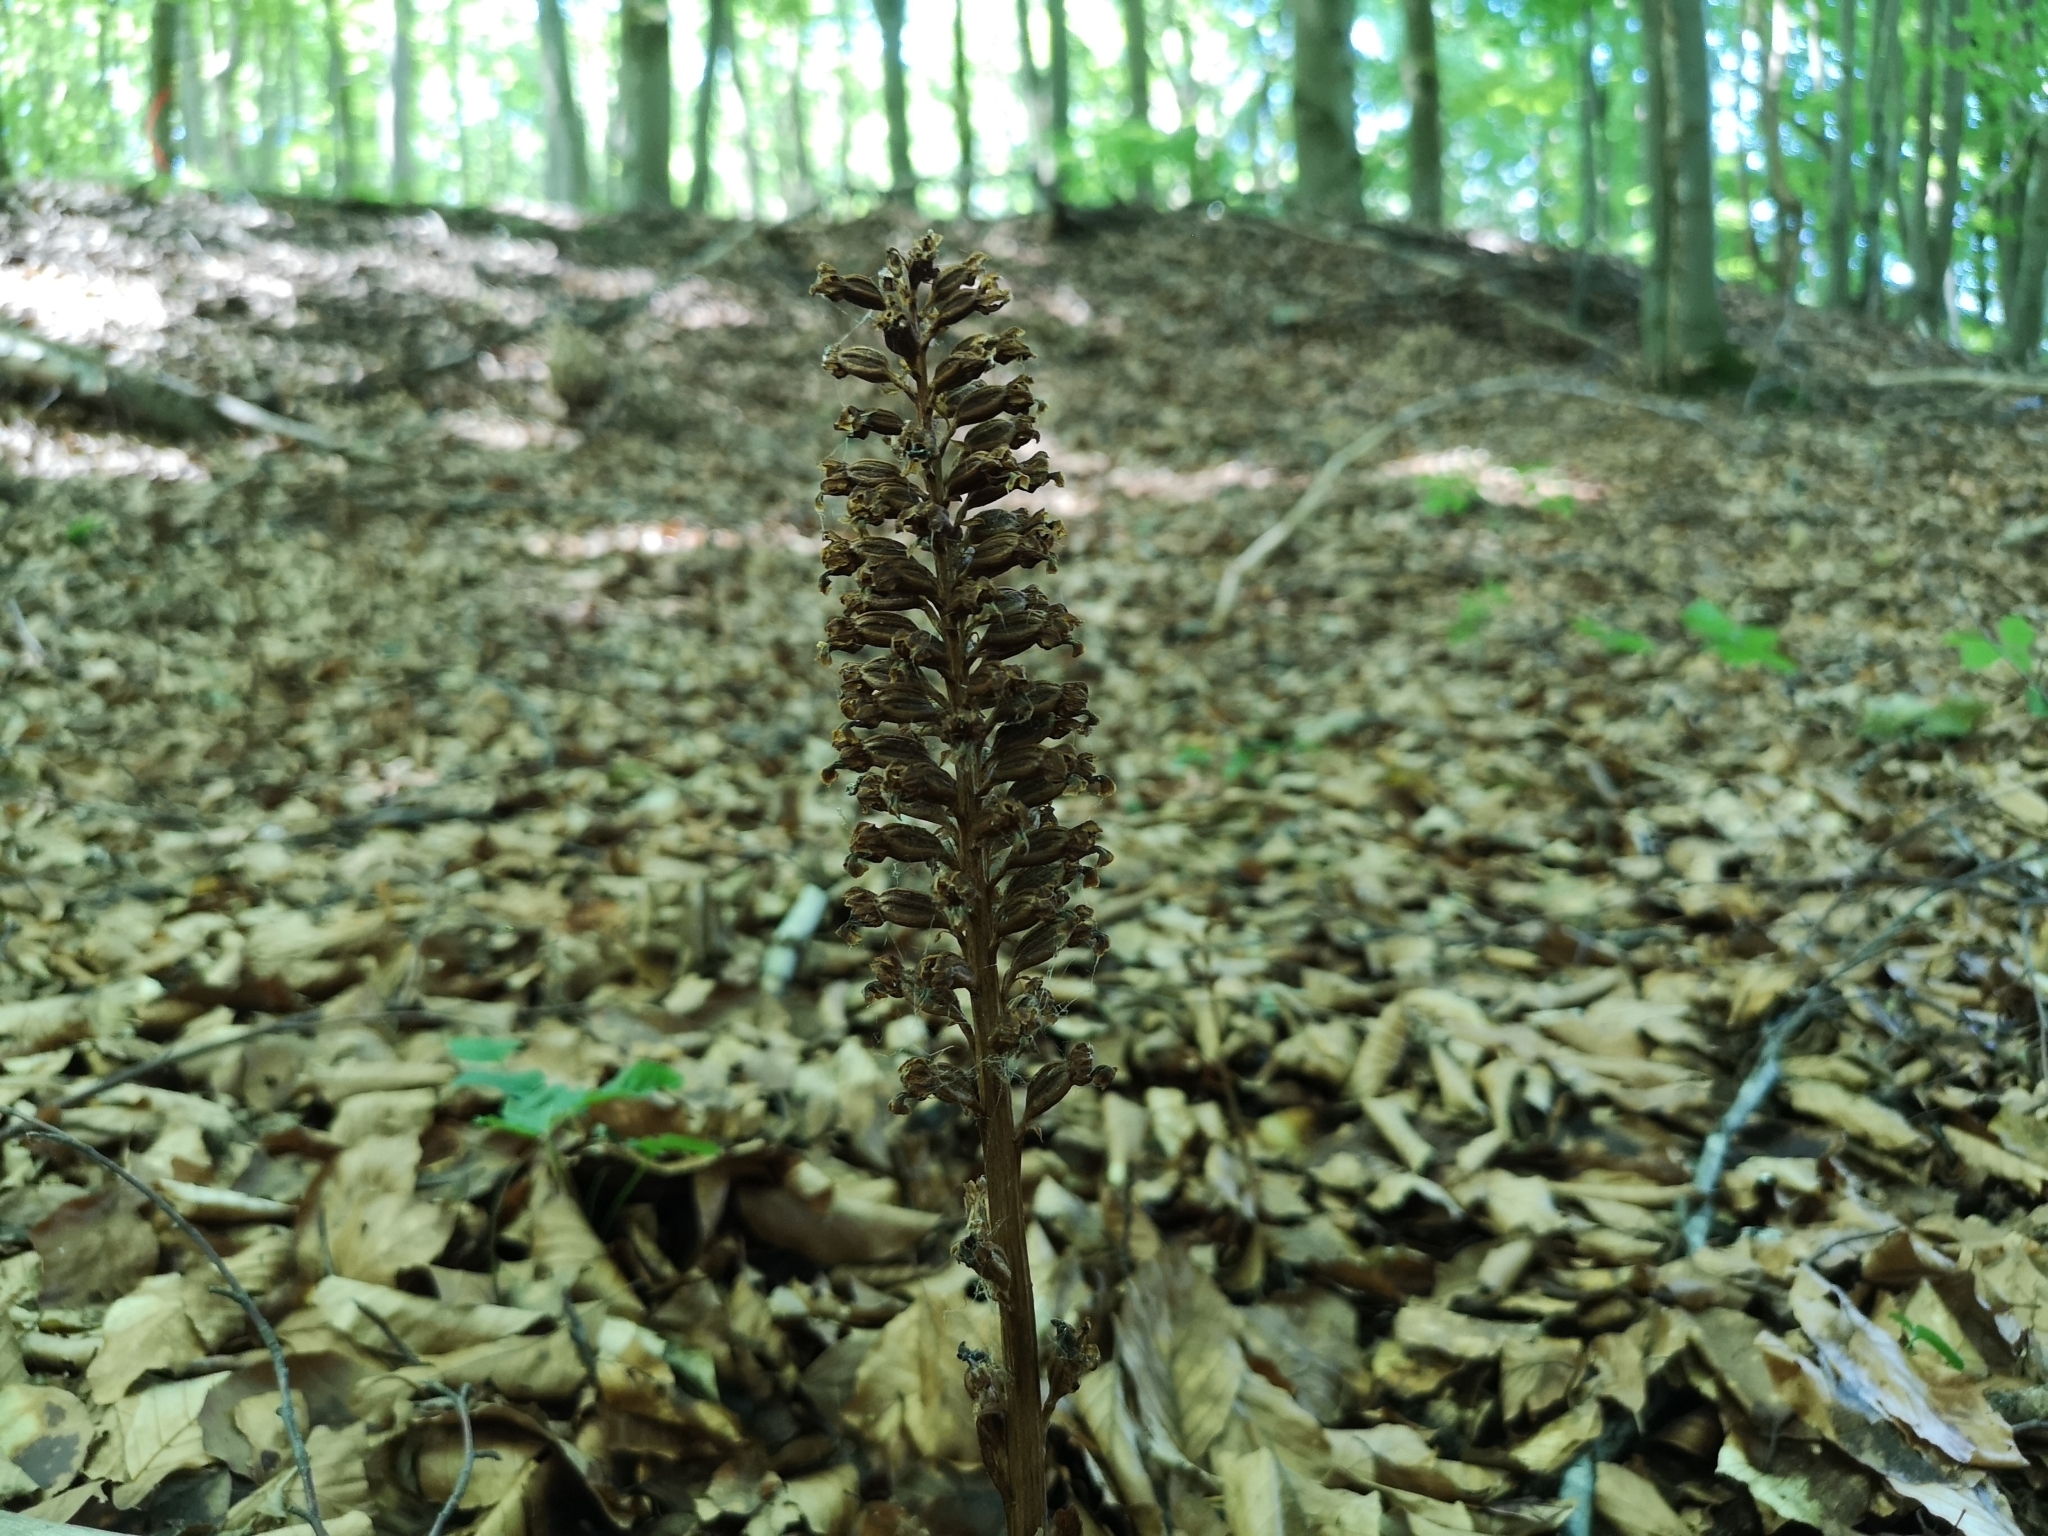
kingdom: Plantae
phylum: Tracheophyta
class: Liliopsida
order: Asparagales
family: Orchidaceae
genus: Neottia
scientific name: Neottia nidus-avis
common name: Bird's-nest orchid
